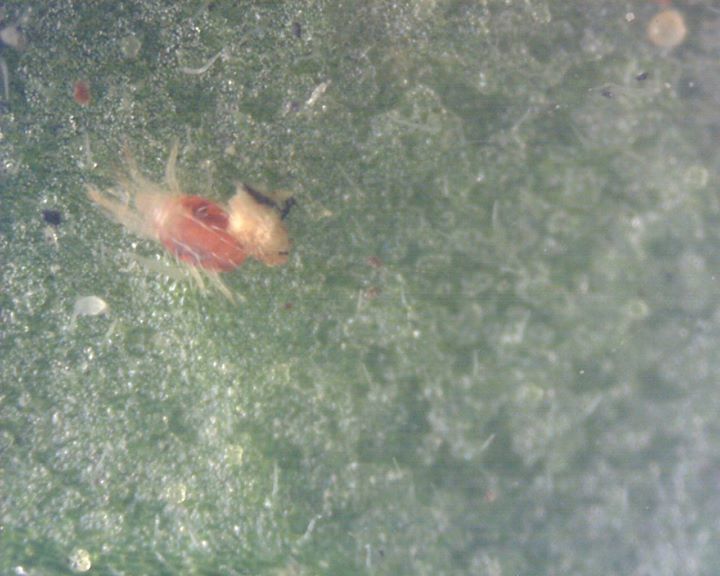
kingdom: Animalia
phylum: Arthropoda
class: Arachnida
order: Trombidiformes
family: Tetranychidae
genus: Tetranychus
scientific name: Tetranychus urticae
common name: Carmine spider mite
